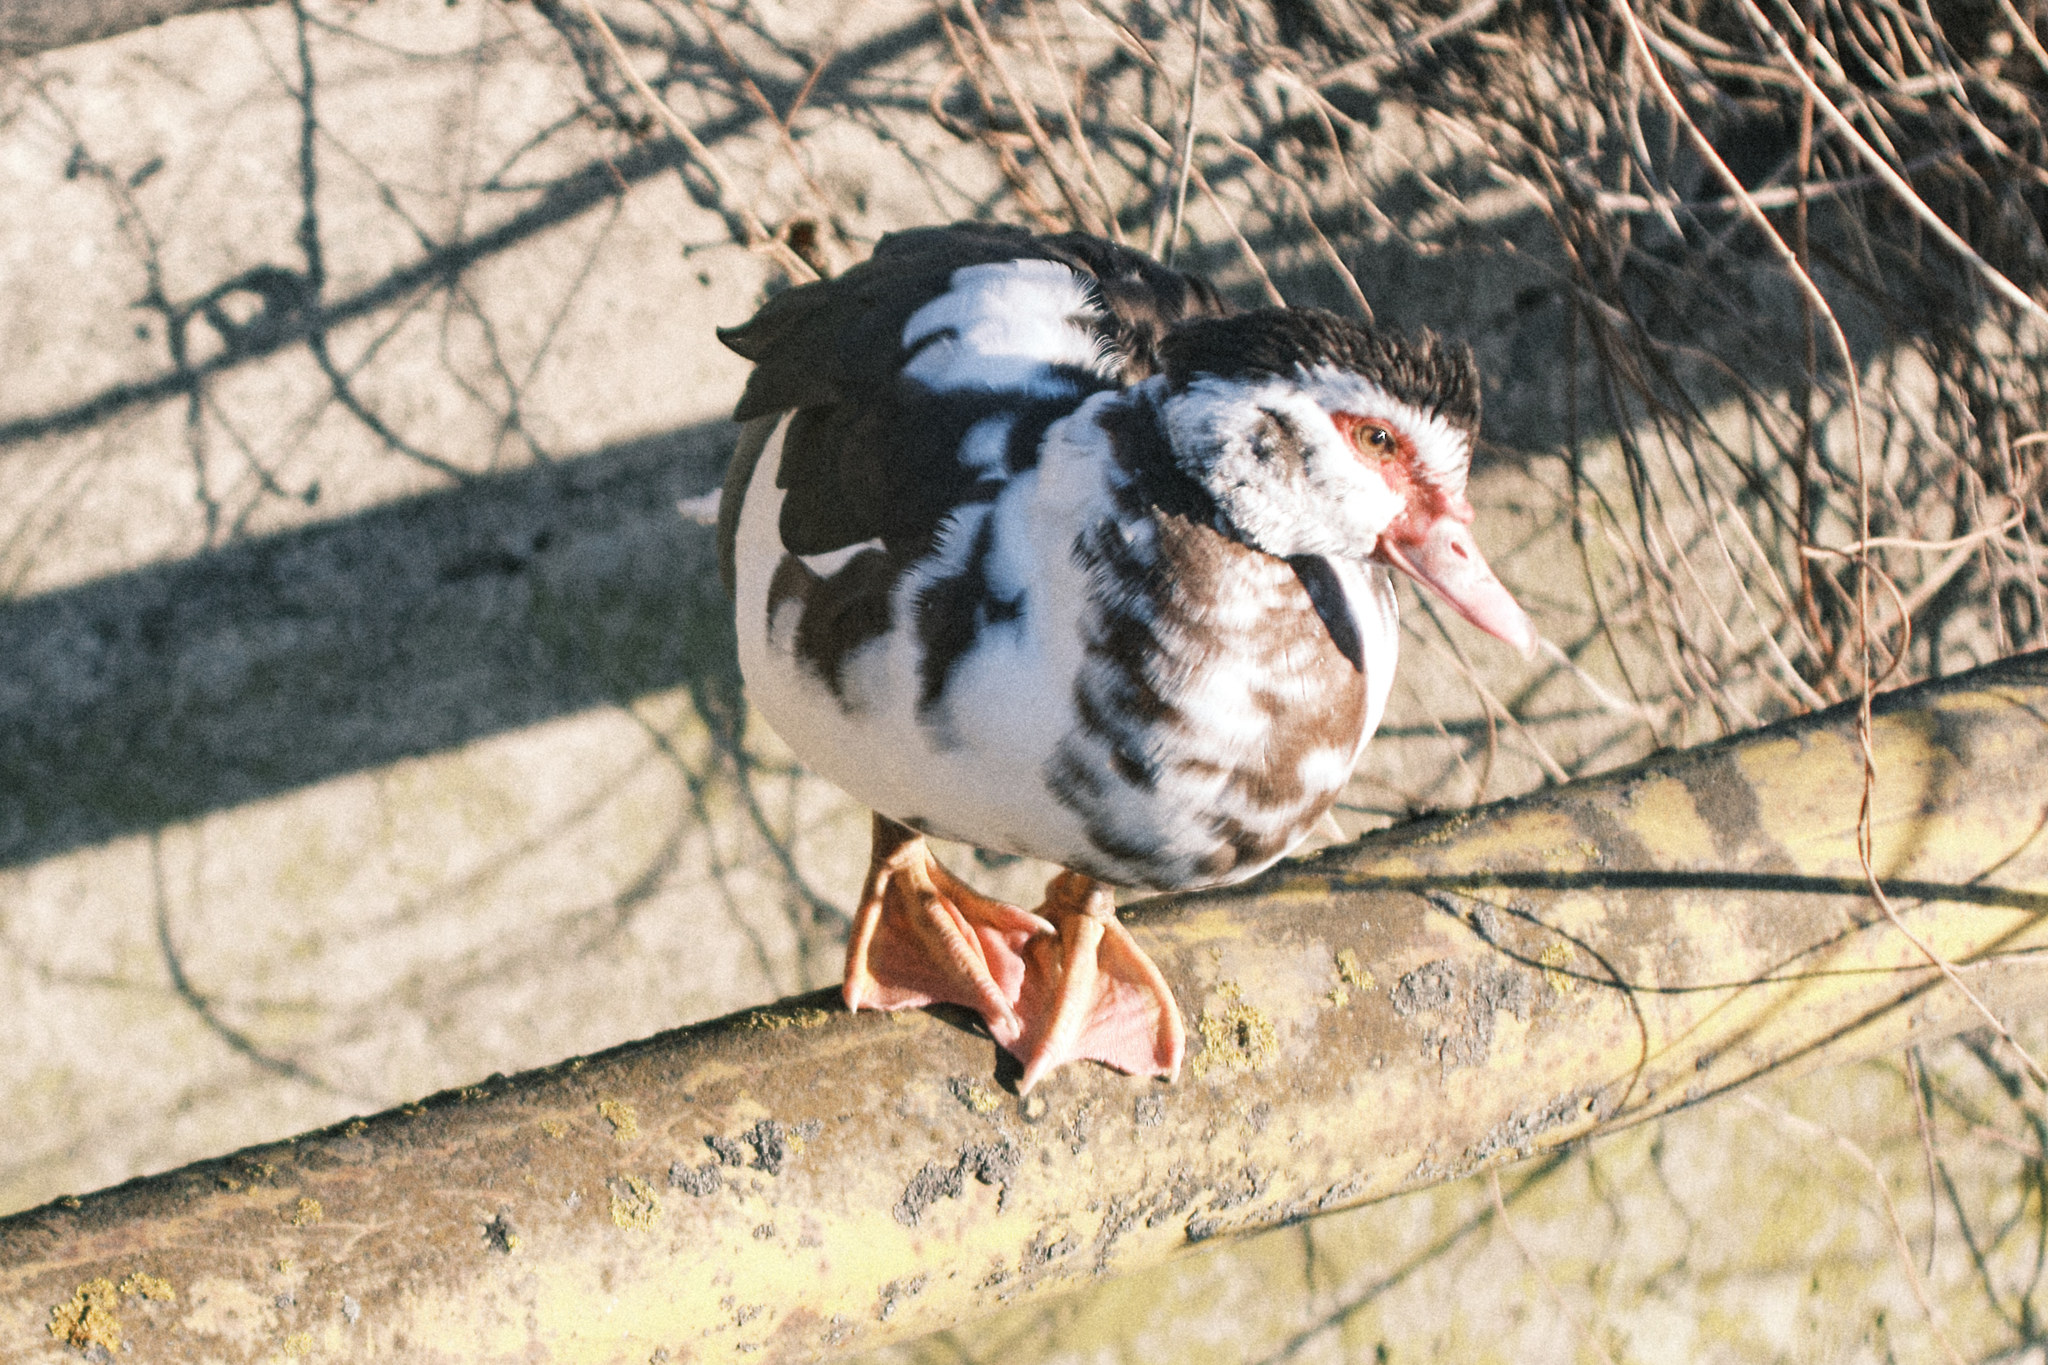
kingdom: Animalia
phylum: Chordata
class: Aves
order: Anseriformes
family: Anatidae
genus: Cairina
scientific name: Cairina moschata
